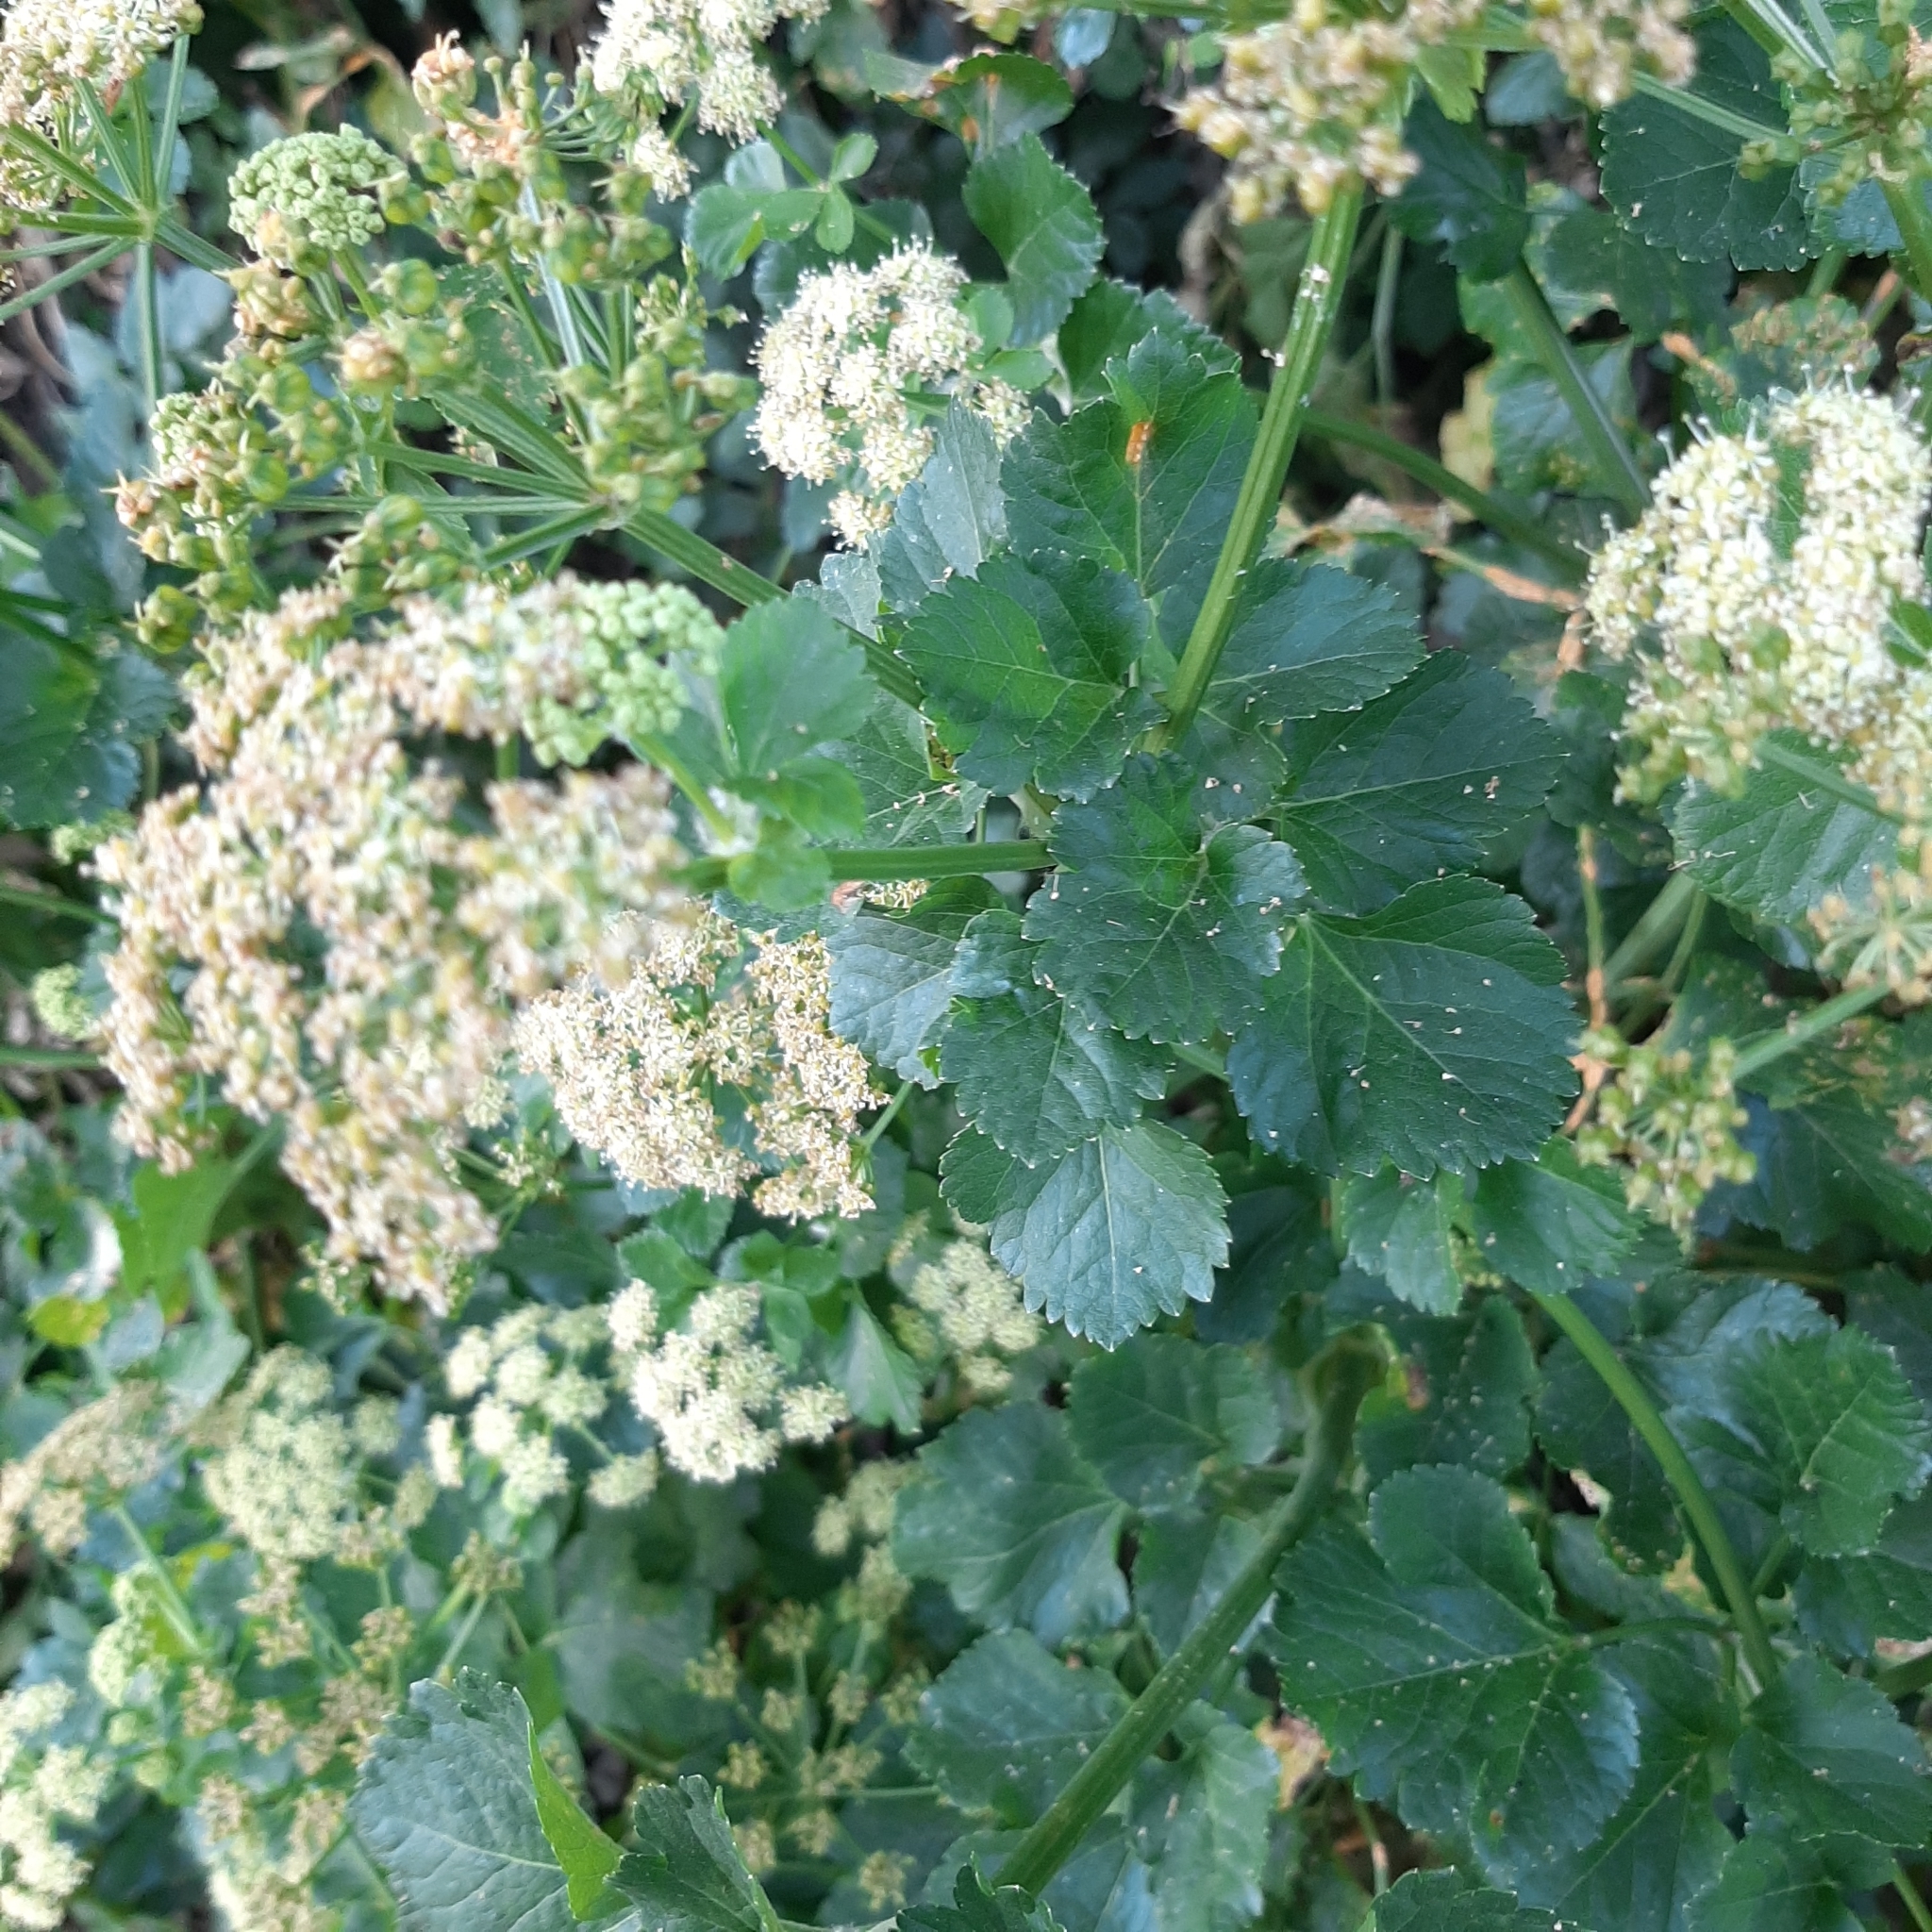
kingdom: Plantae
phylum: Tracheophyta
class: Magnoliopsida
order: Apiales
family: Apiaceae
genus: Smyrnium
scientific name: Smyrnium olusatrum
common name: Alexanders
